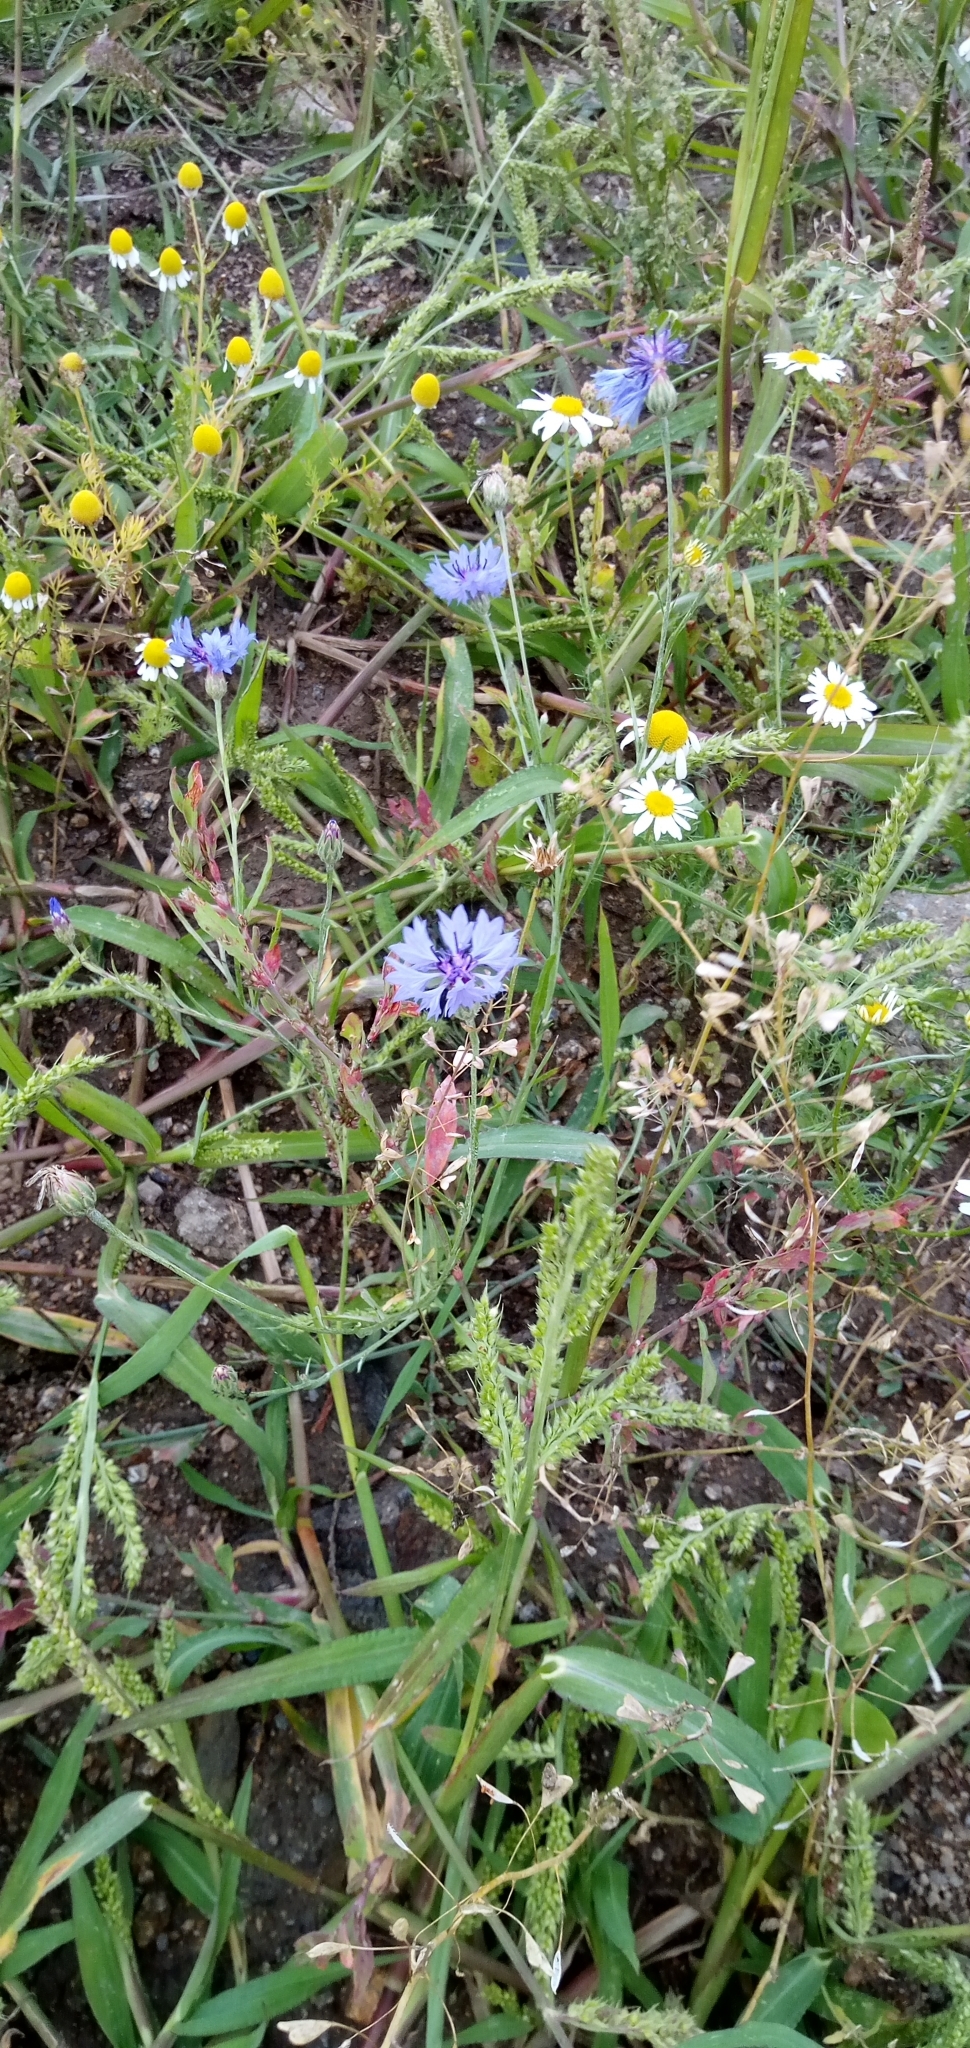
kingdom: Plantae
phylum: Tracheophyta
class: Magnoliopsida
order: Asterales
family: Asteraceae
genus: Centaurea
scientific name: Centaurea cyanus
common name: Cornflower
